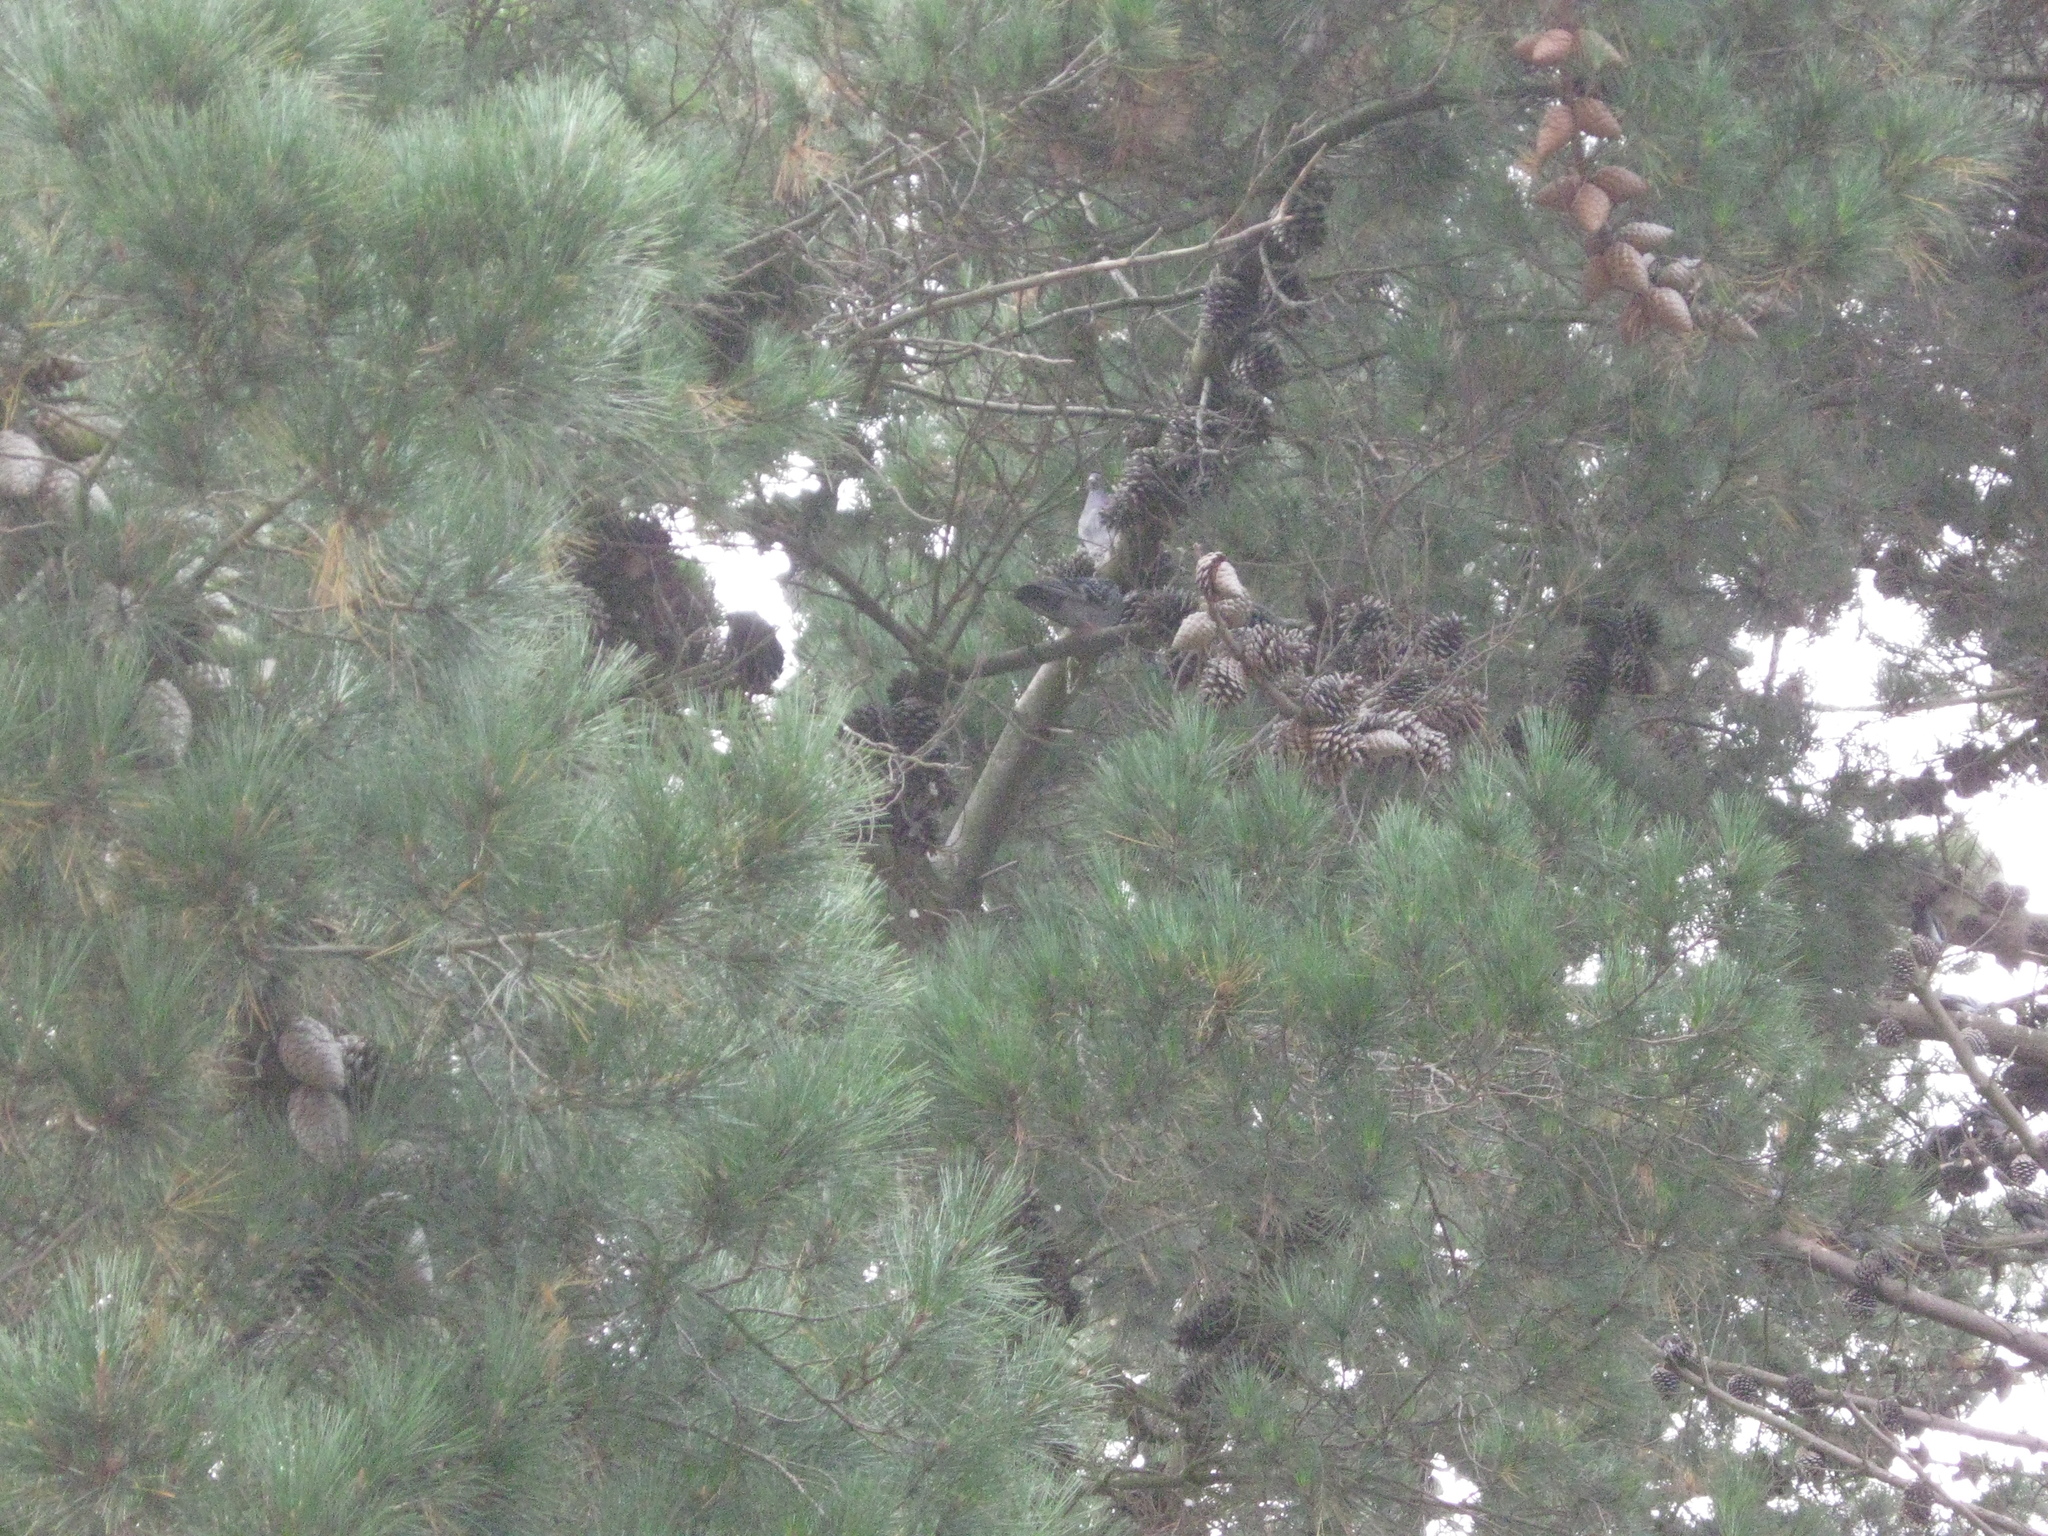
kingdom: Animalia
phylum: Chordata
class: Aves
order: Columbiformes
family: Columbidae
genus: Columba
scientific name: Columba livia
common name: Rock pigeon
